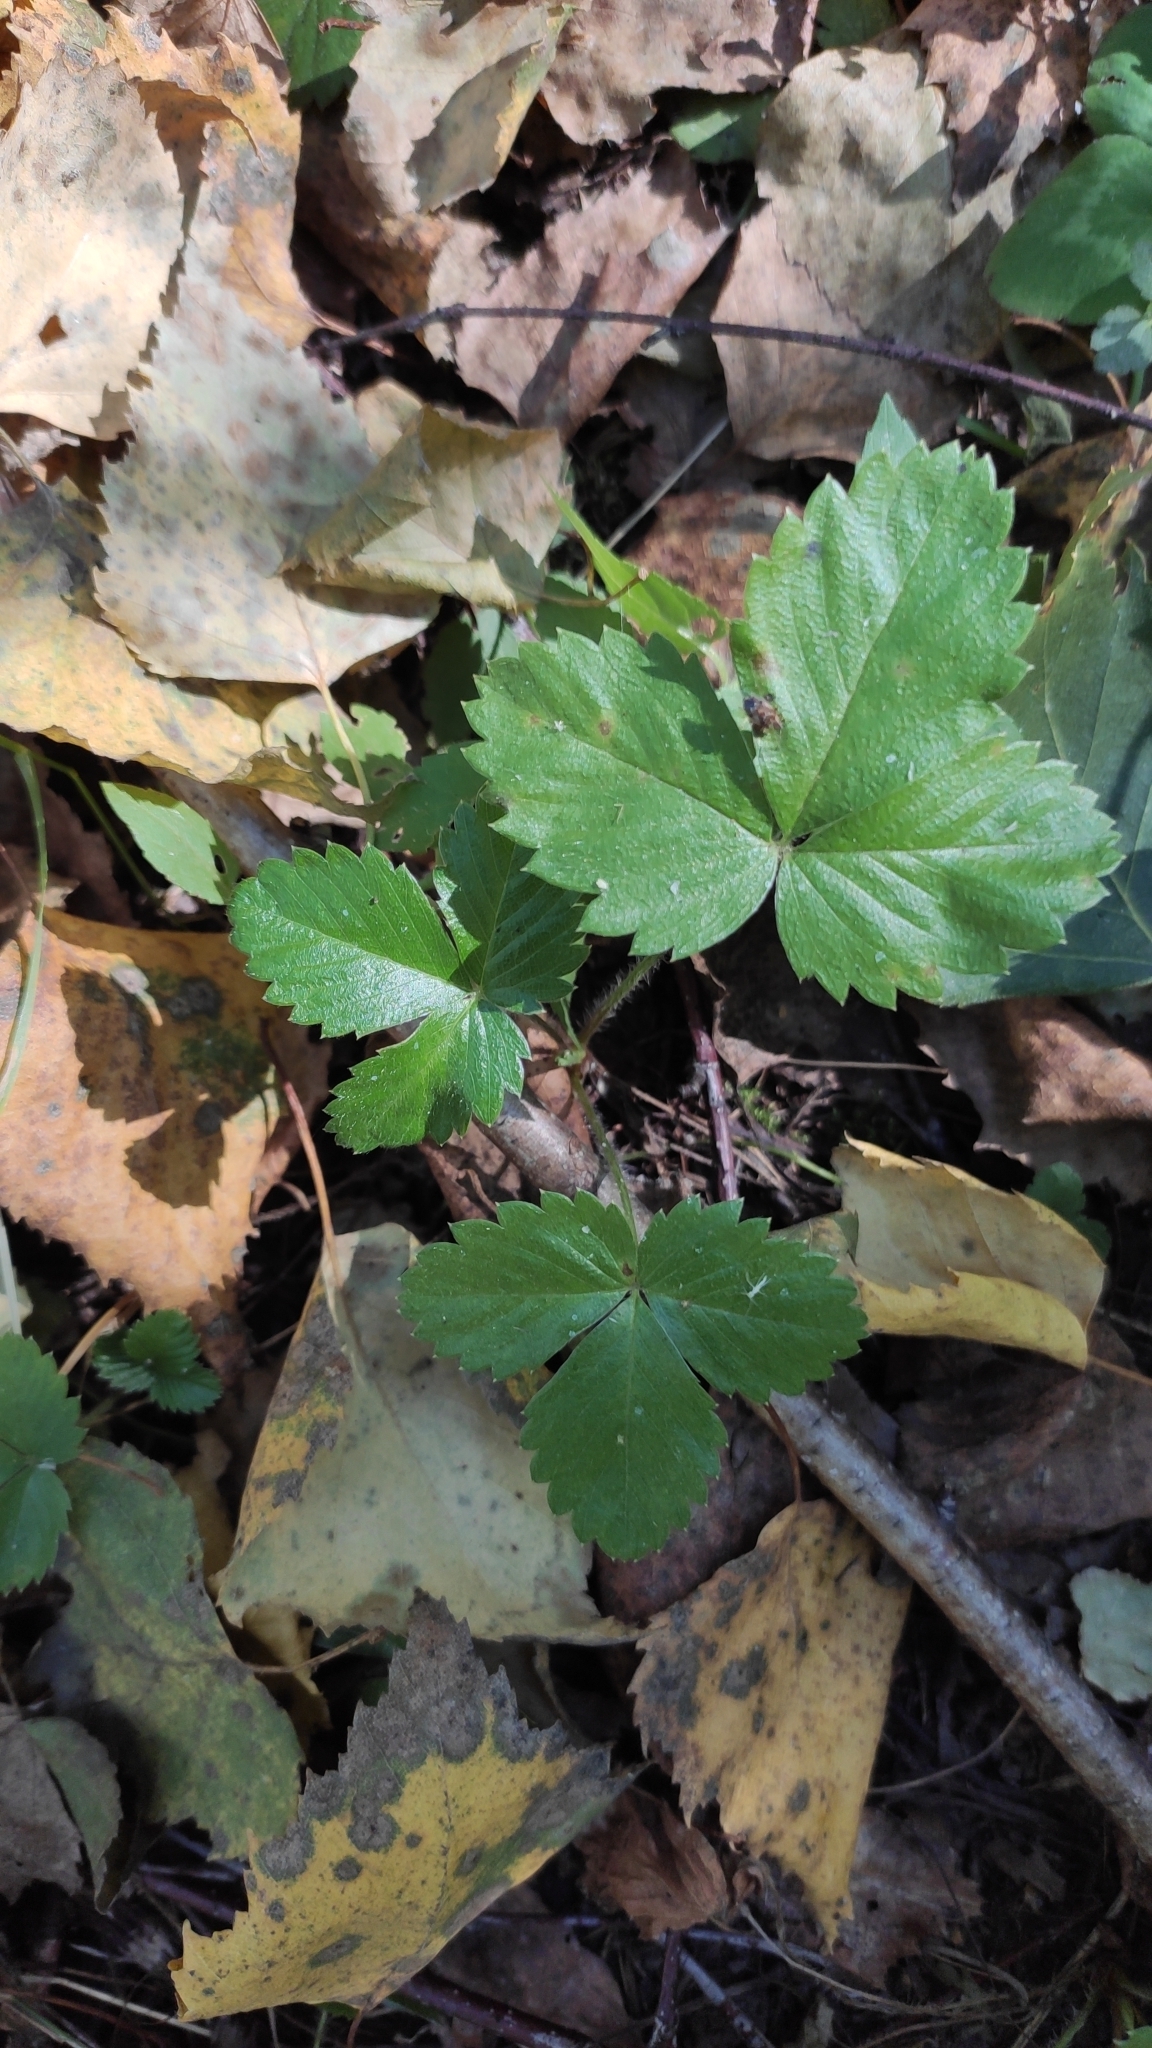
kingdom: Plantae
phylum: Tracheophyta
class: Magnoliopsida
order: Rosales
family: Rosaceae
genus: Fragaria
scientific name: Fragaria vesca
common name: Wild strawberry
